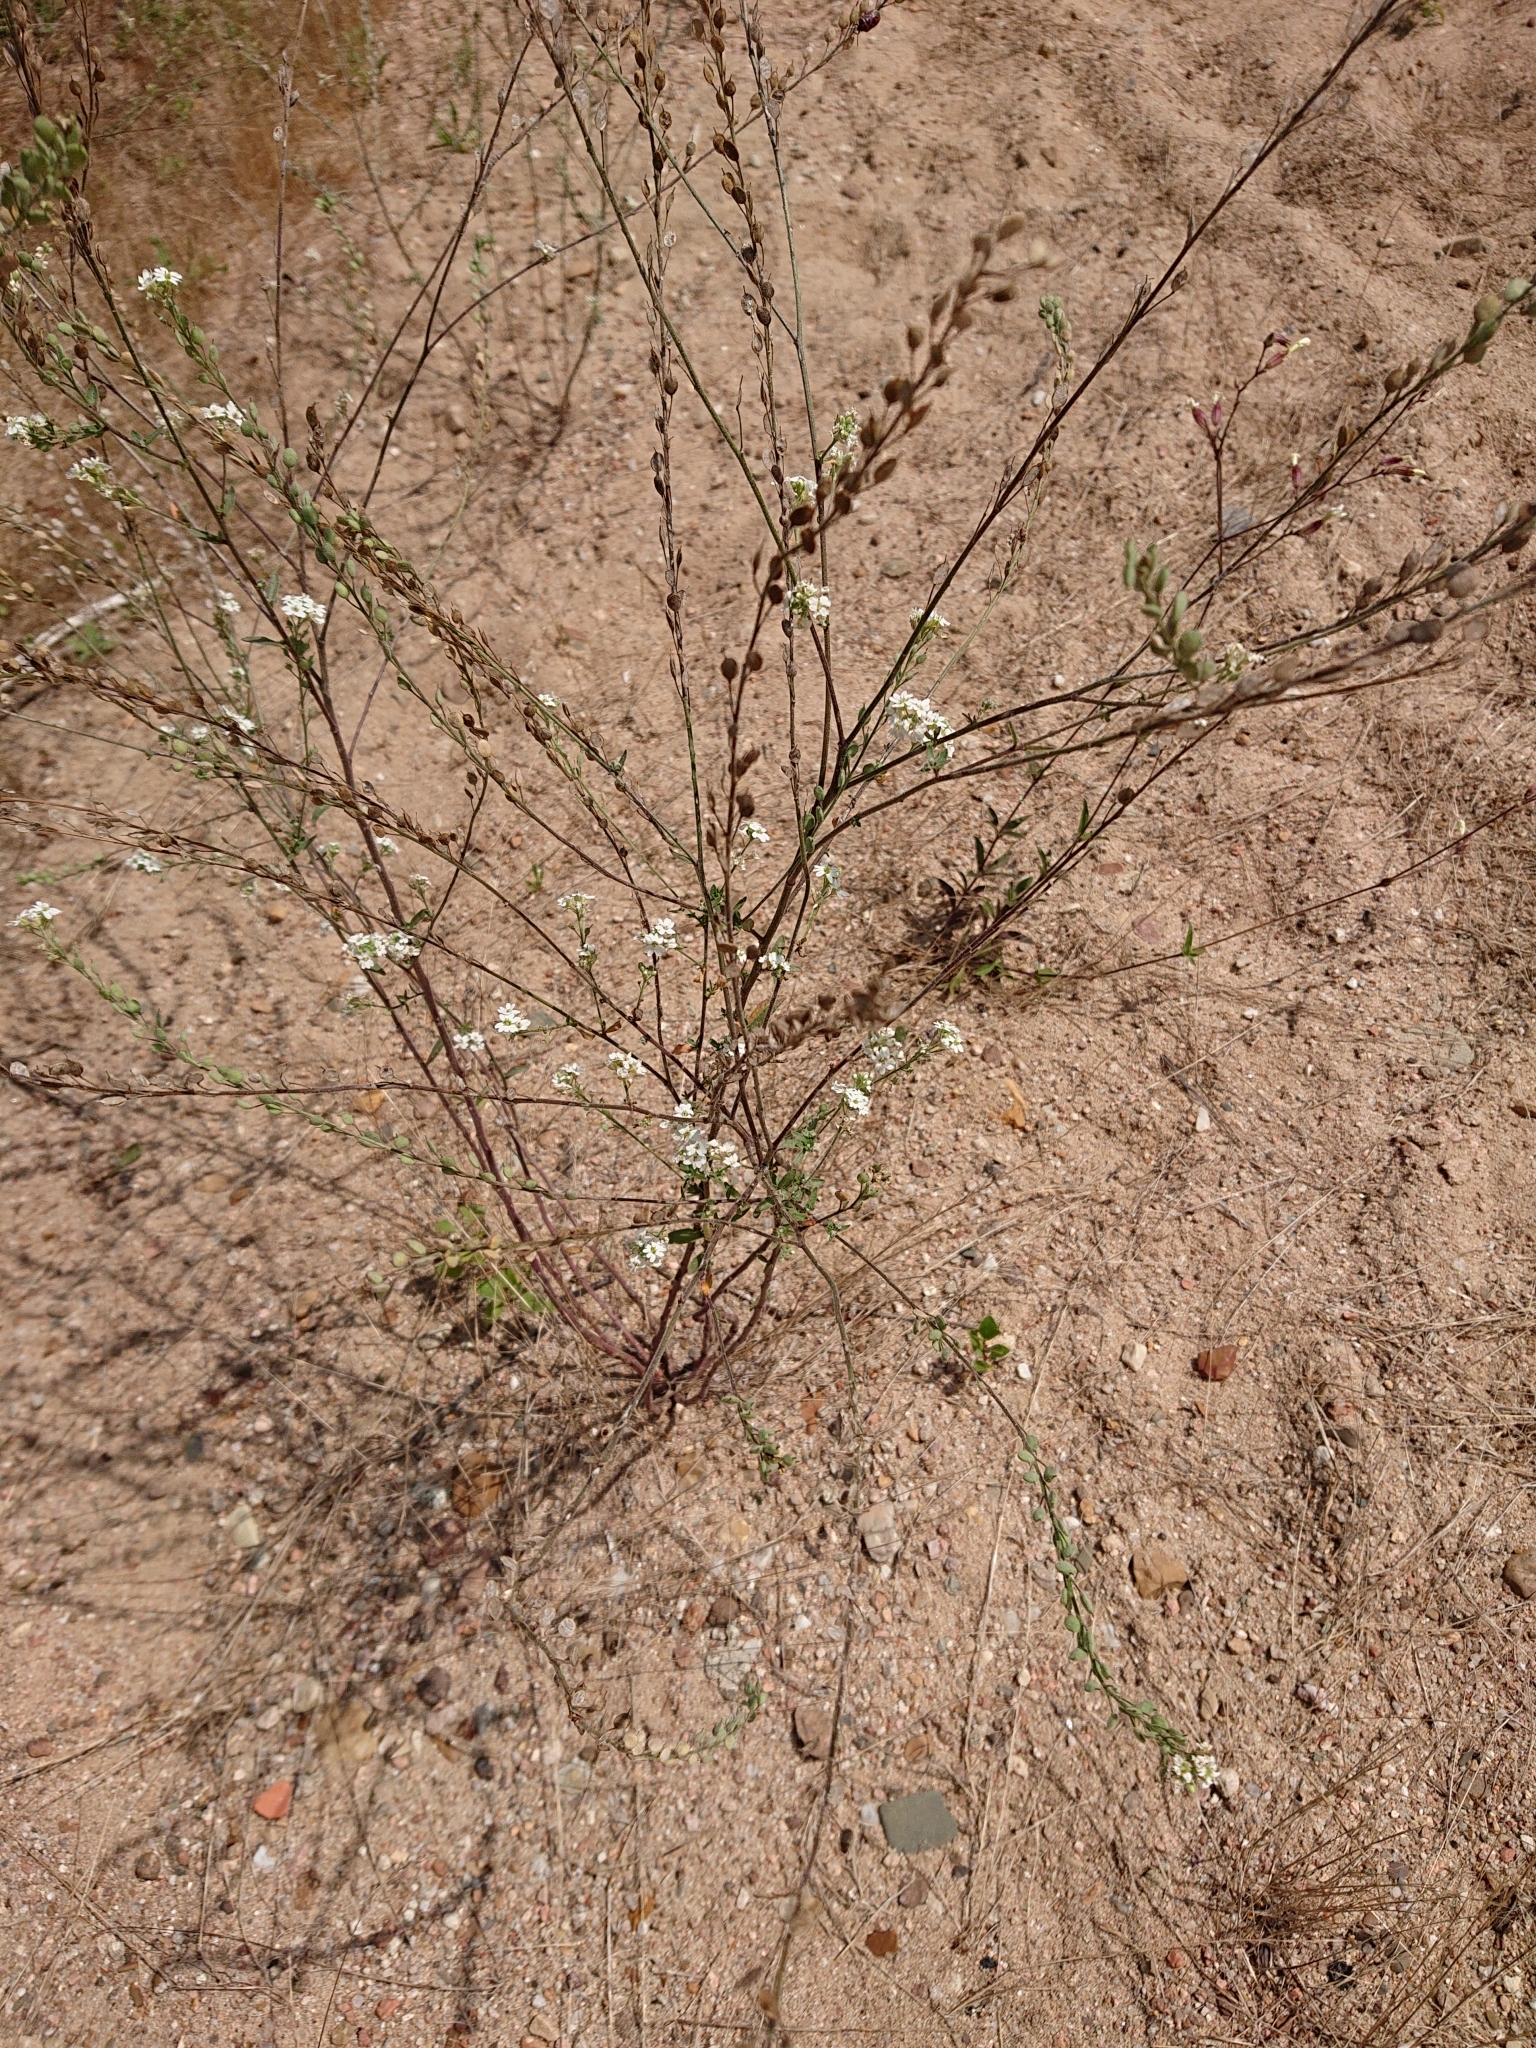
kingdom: Plantae
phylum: Tracheophyta
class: Magnoliopsida
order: Brassicales
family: Brassicaceae
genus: Berteroa
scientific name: Berteroa incana
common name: Hoary alison
